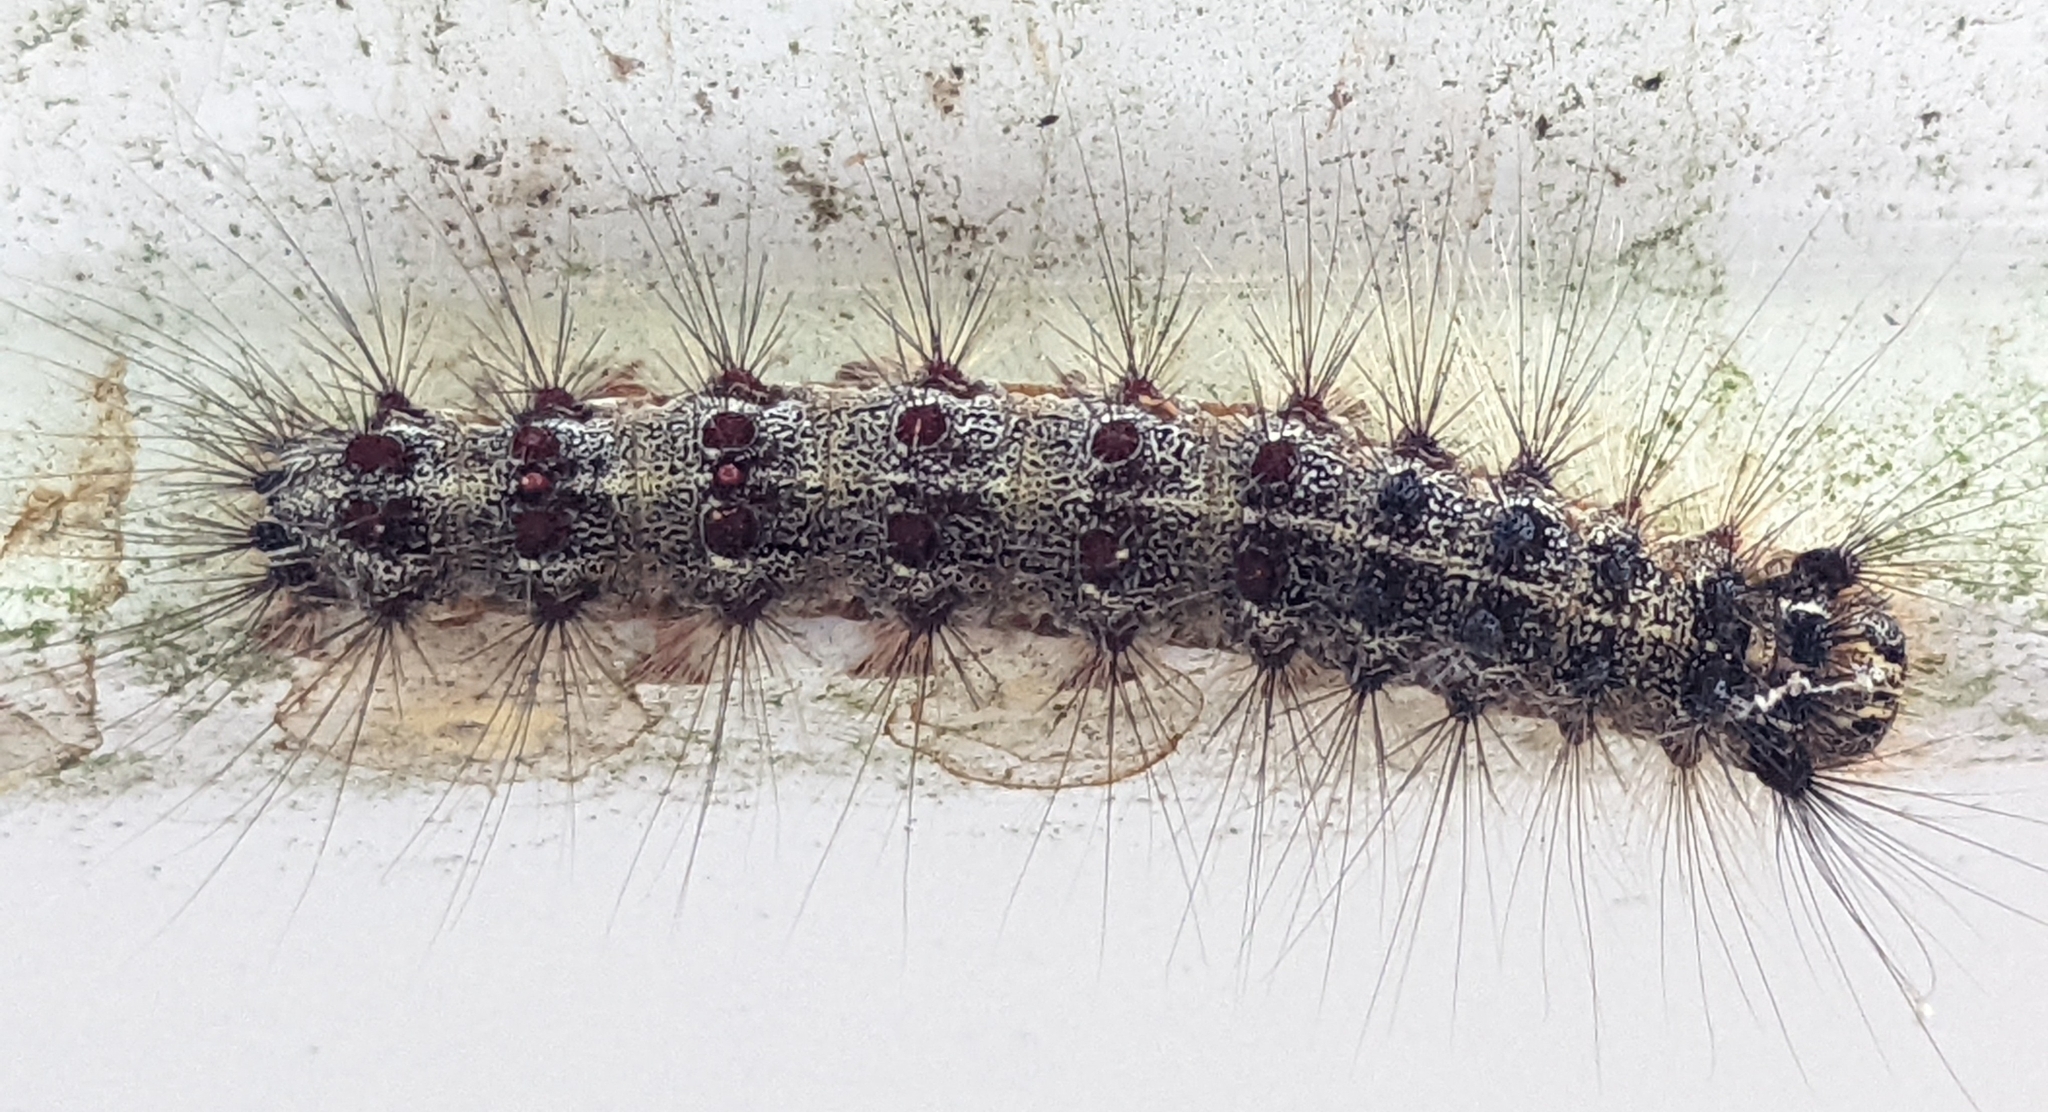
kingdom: Animalia
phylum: Arthropoda
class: Insecta
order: Lepidoptera
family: Erebidae
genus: Lymantria
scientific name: Lymantria dispar
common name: Gypsy moth
